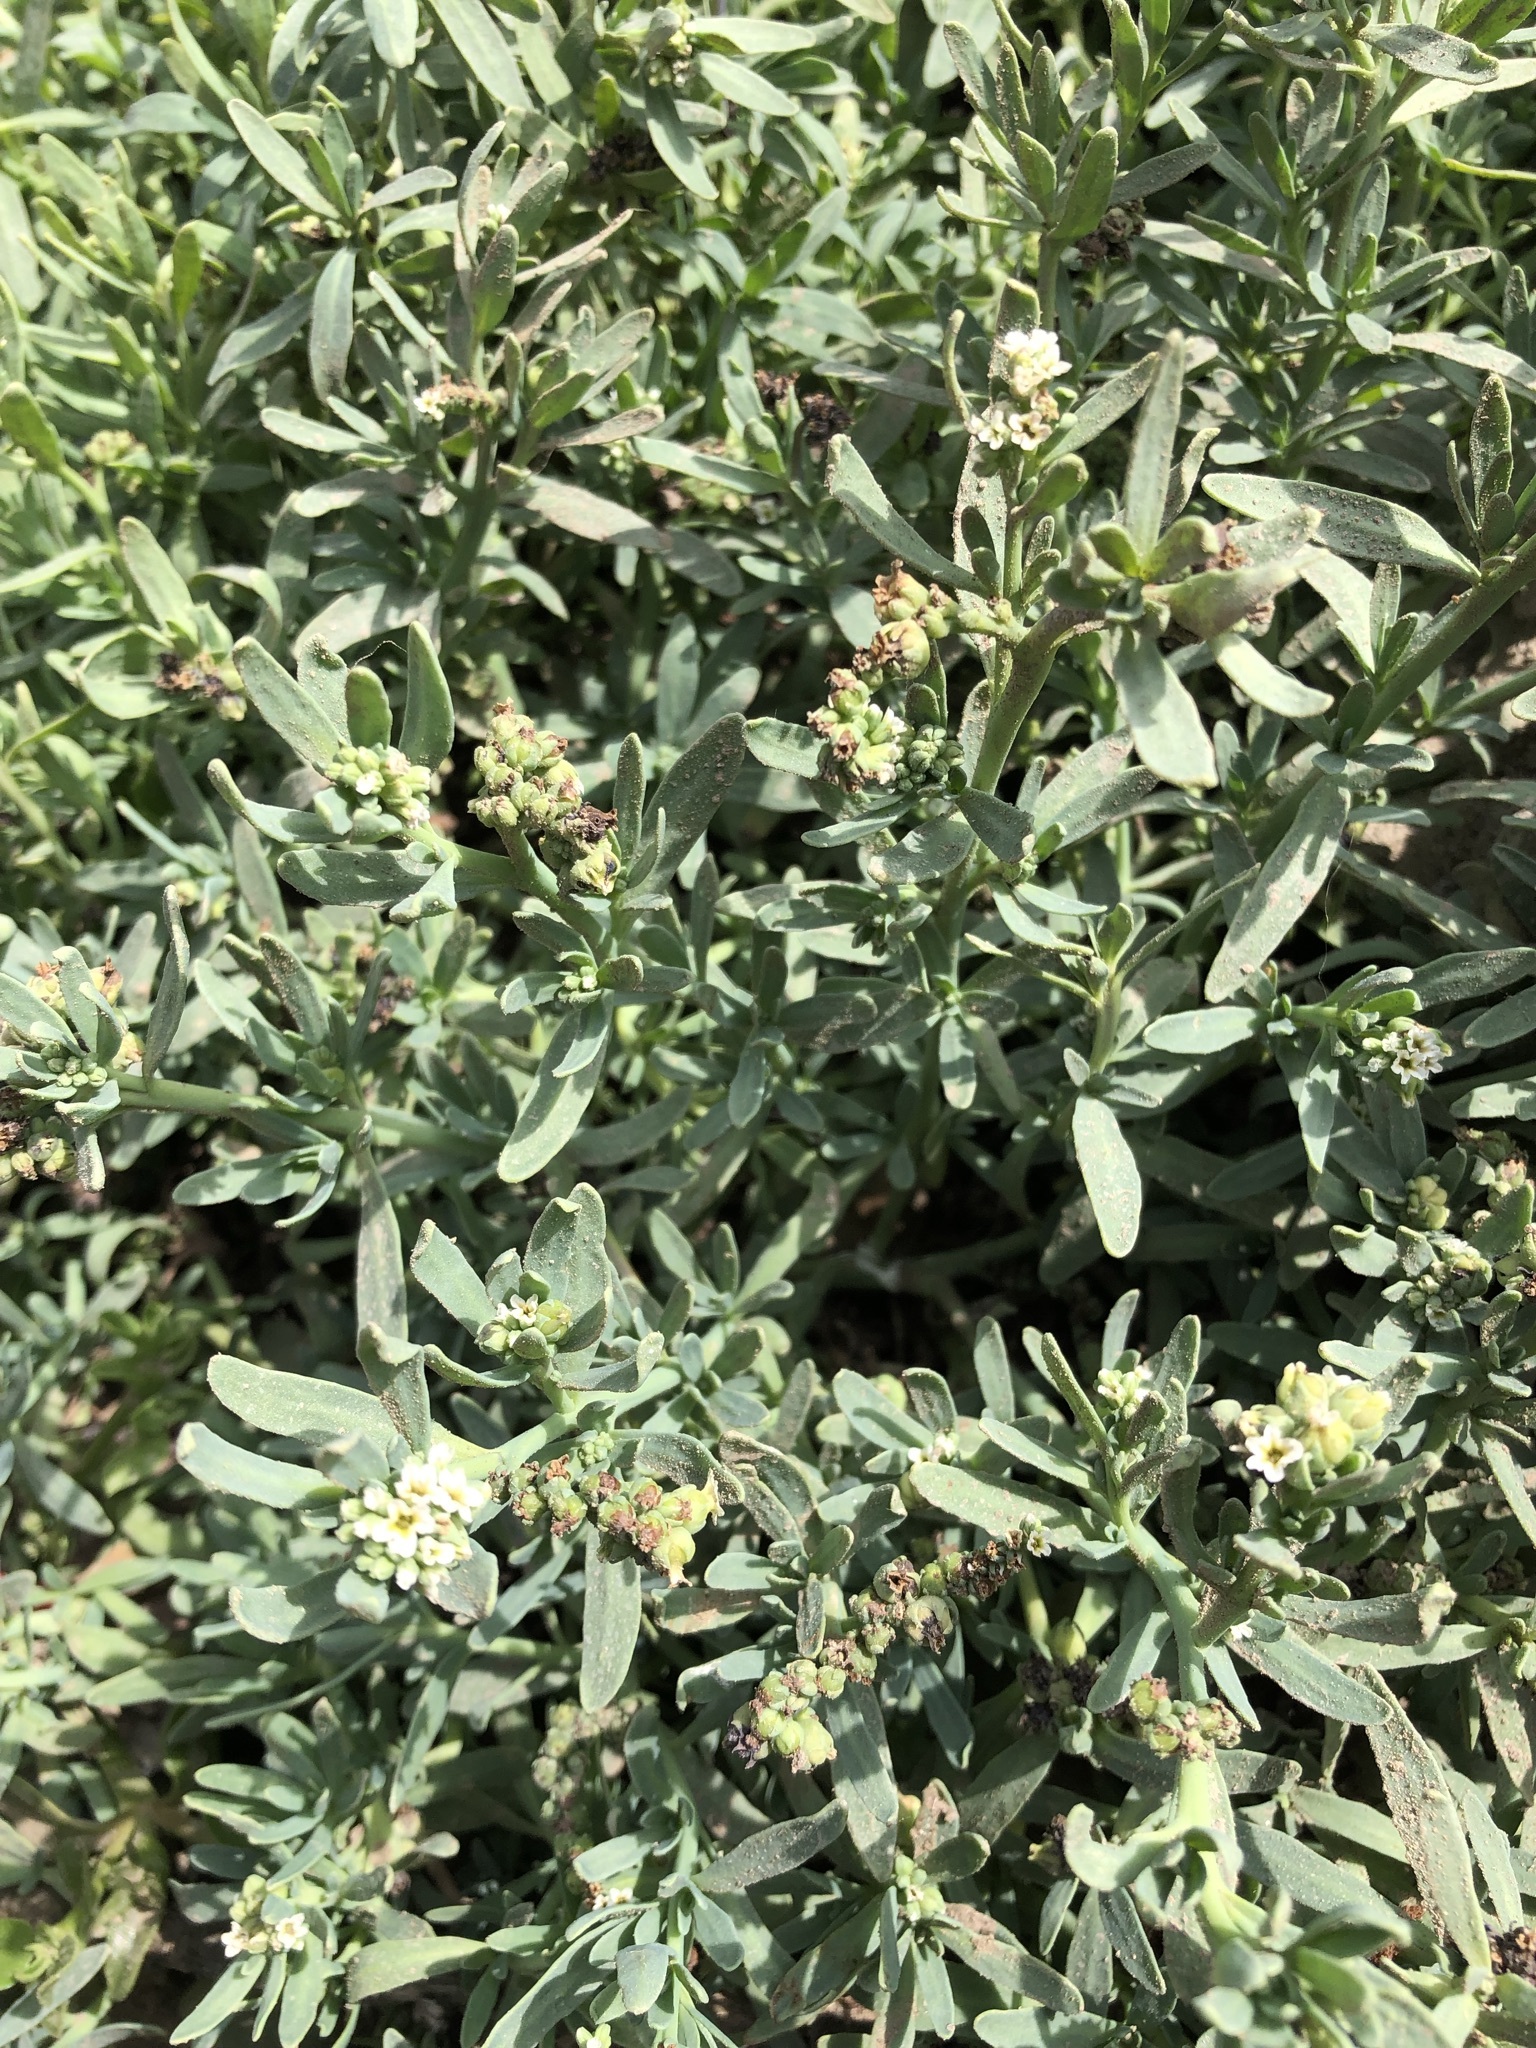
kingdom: Plantae
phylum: Tracheophyta
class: Magnoliopsida
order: Boraginales
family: Heliotropiaceae
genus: Heliotropium
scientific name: Heliotropium curassavicum
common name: Seaside heliotrope
